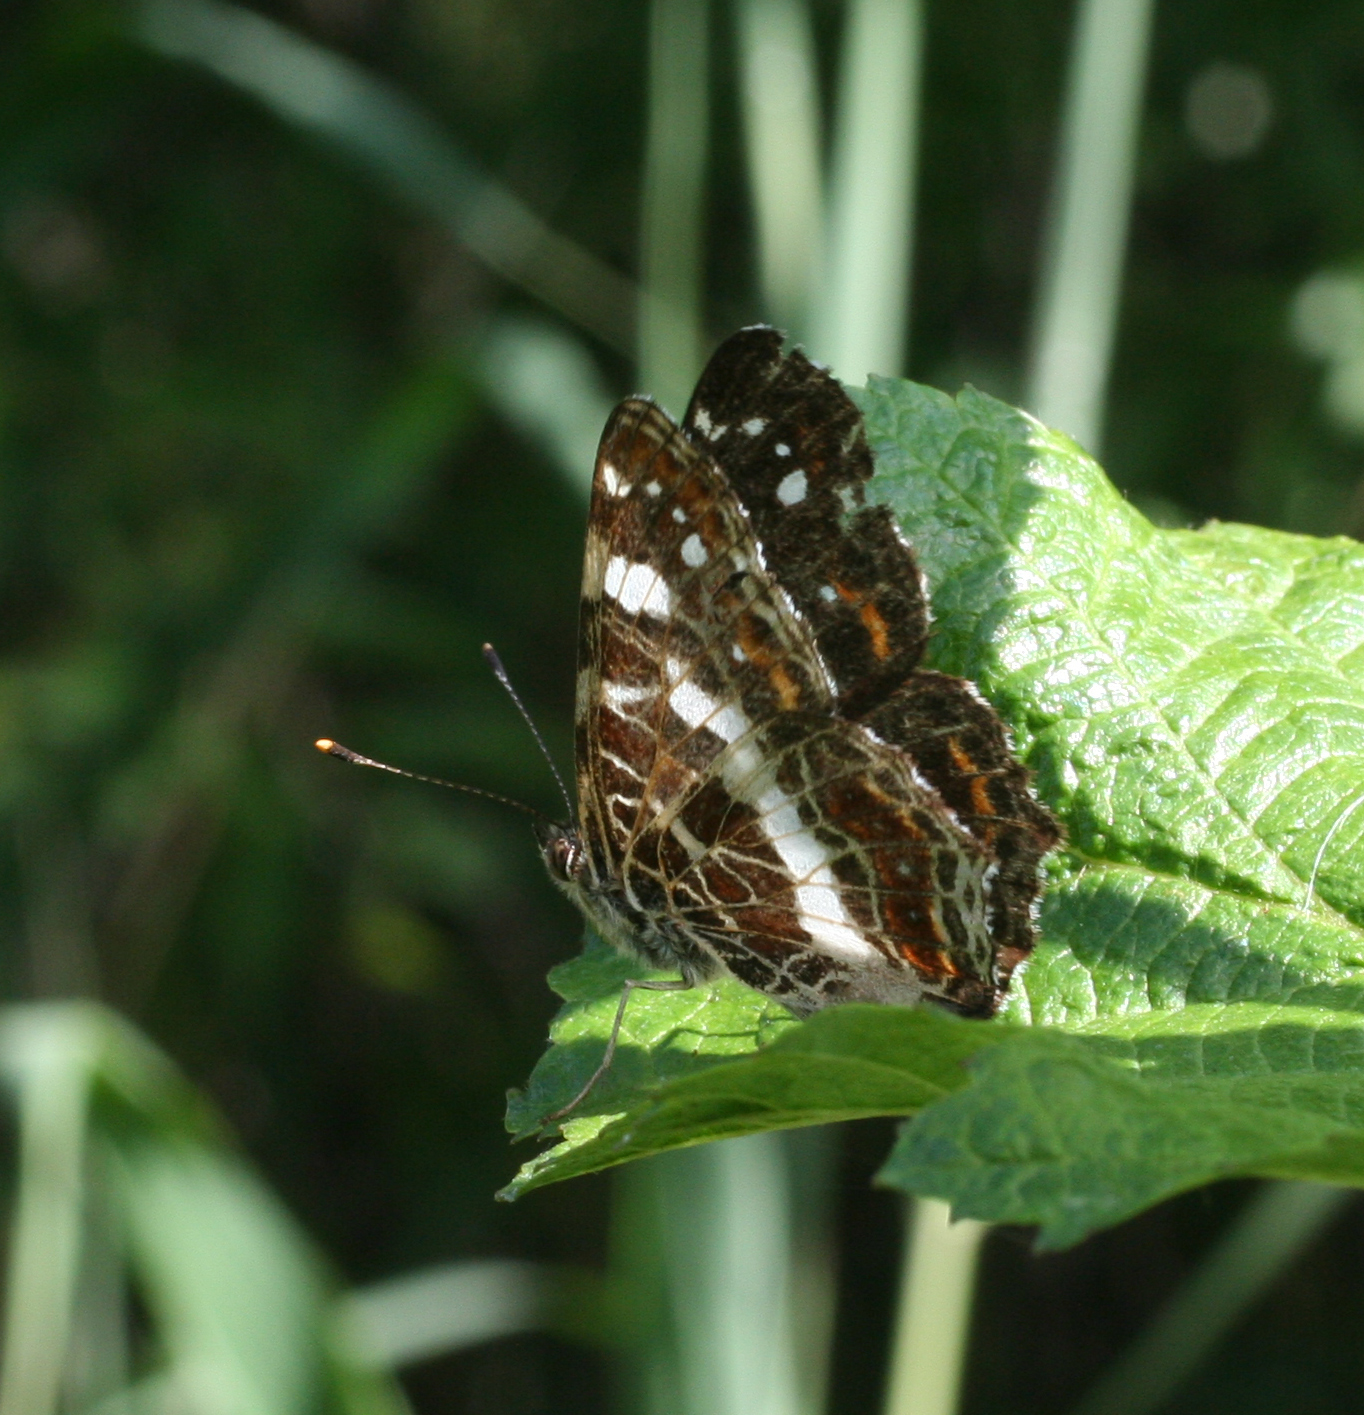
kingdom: Animalia
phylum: Arthropoda
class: Insecta
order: Lepidoptera
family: Nymphalidae
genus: Araschnia
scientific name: Araschnia levana
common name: Map butterfly
